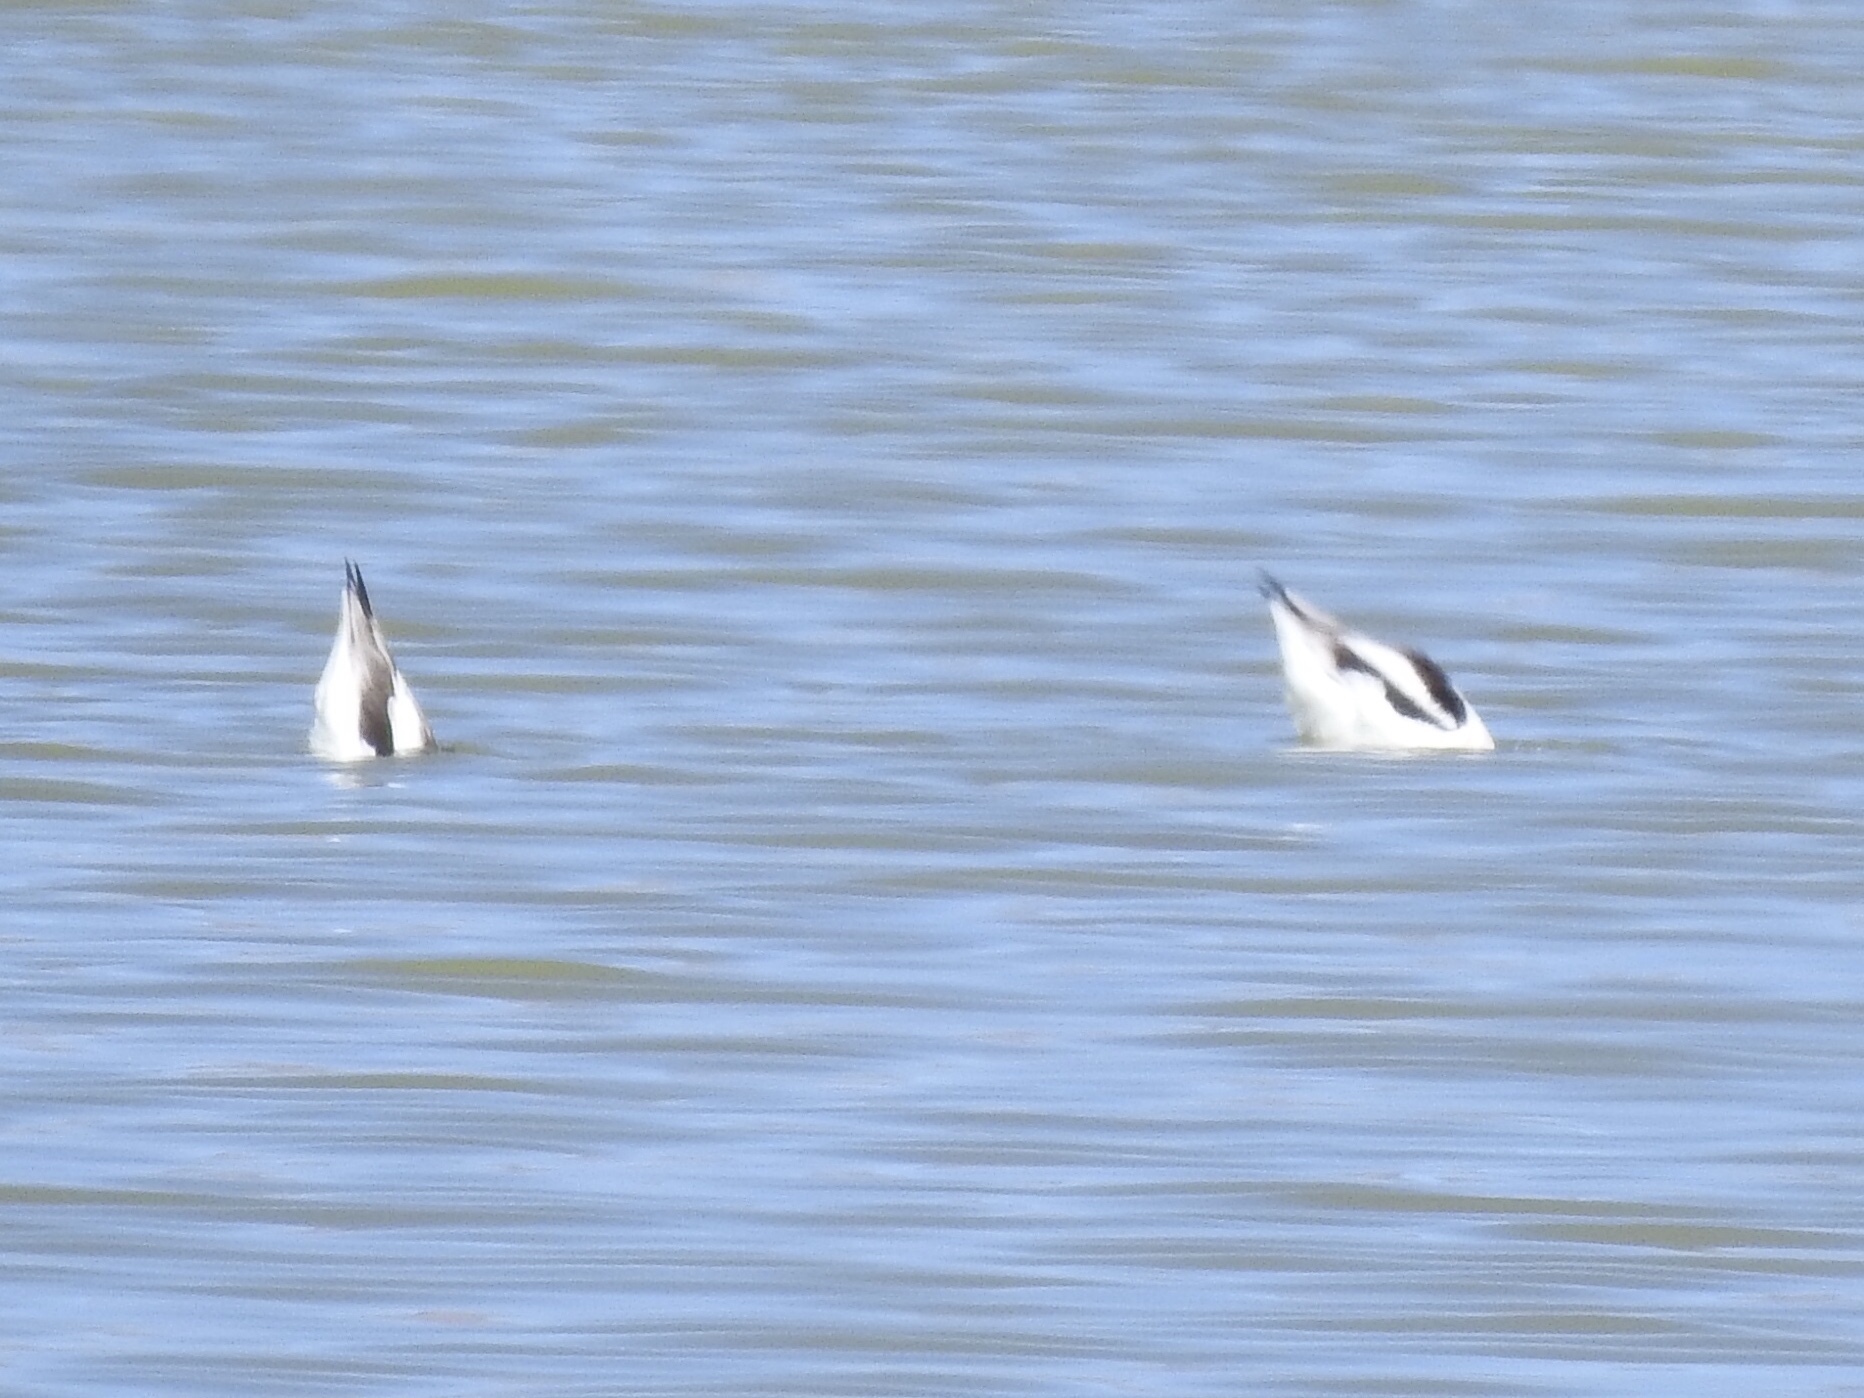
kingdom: Animalia
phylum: Chordata
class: Aves
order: Charadriiformes
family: Recurvirostridae
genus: Recurvirostra
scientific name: Recurvirostra americana
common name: American avocet
